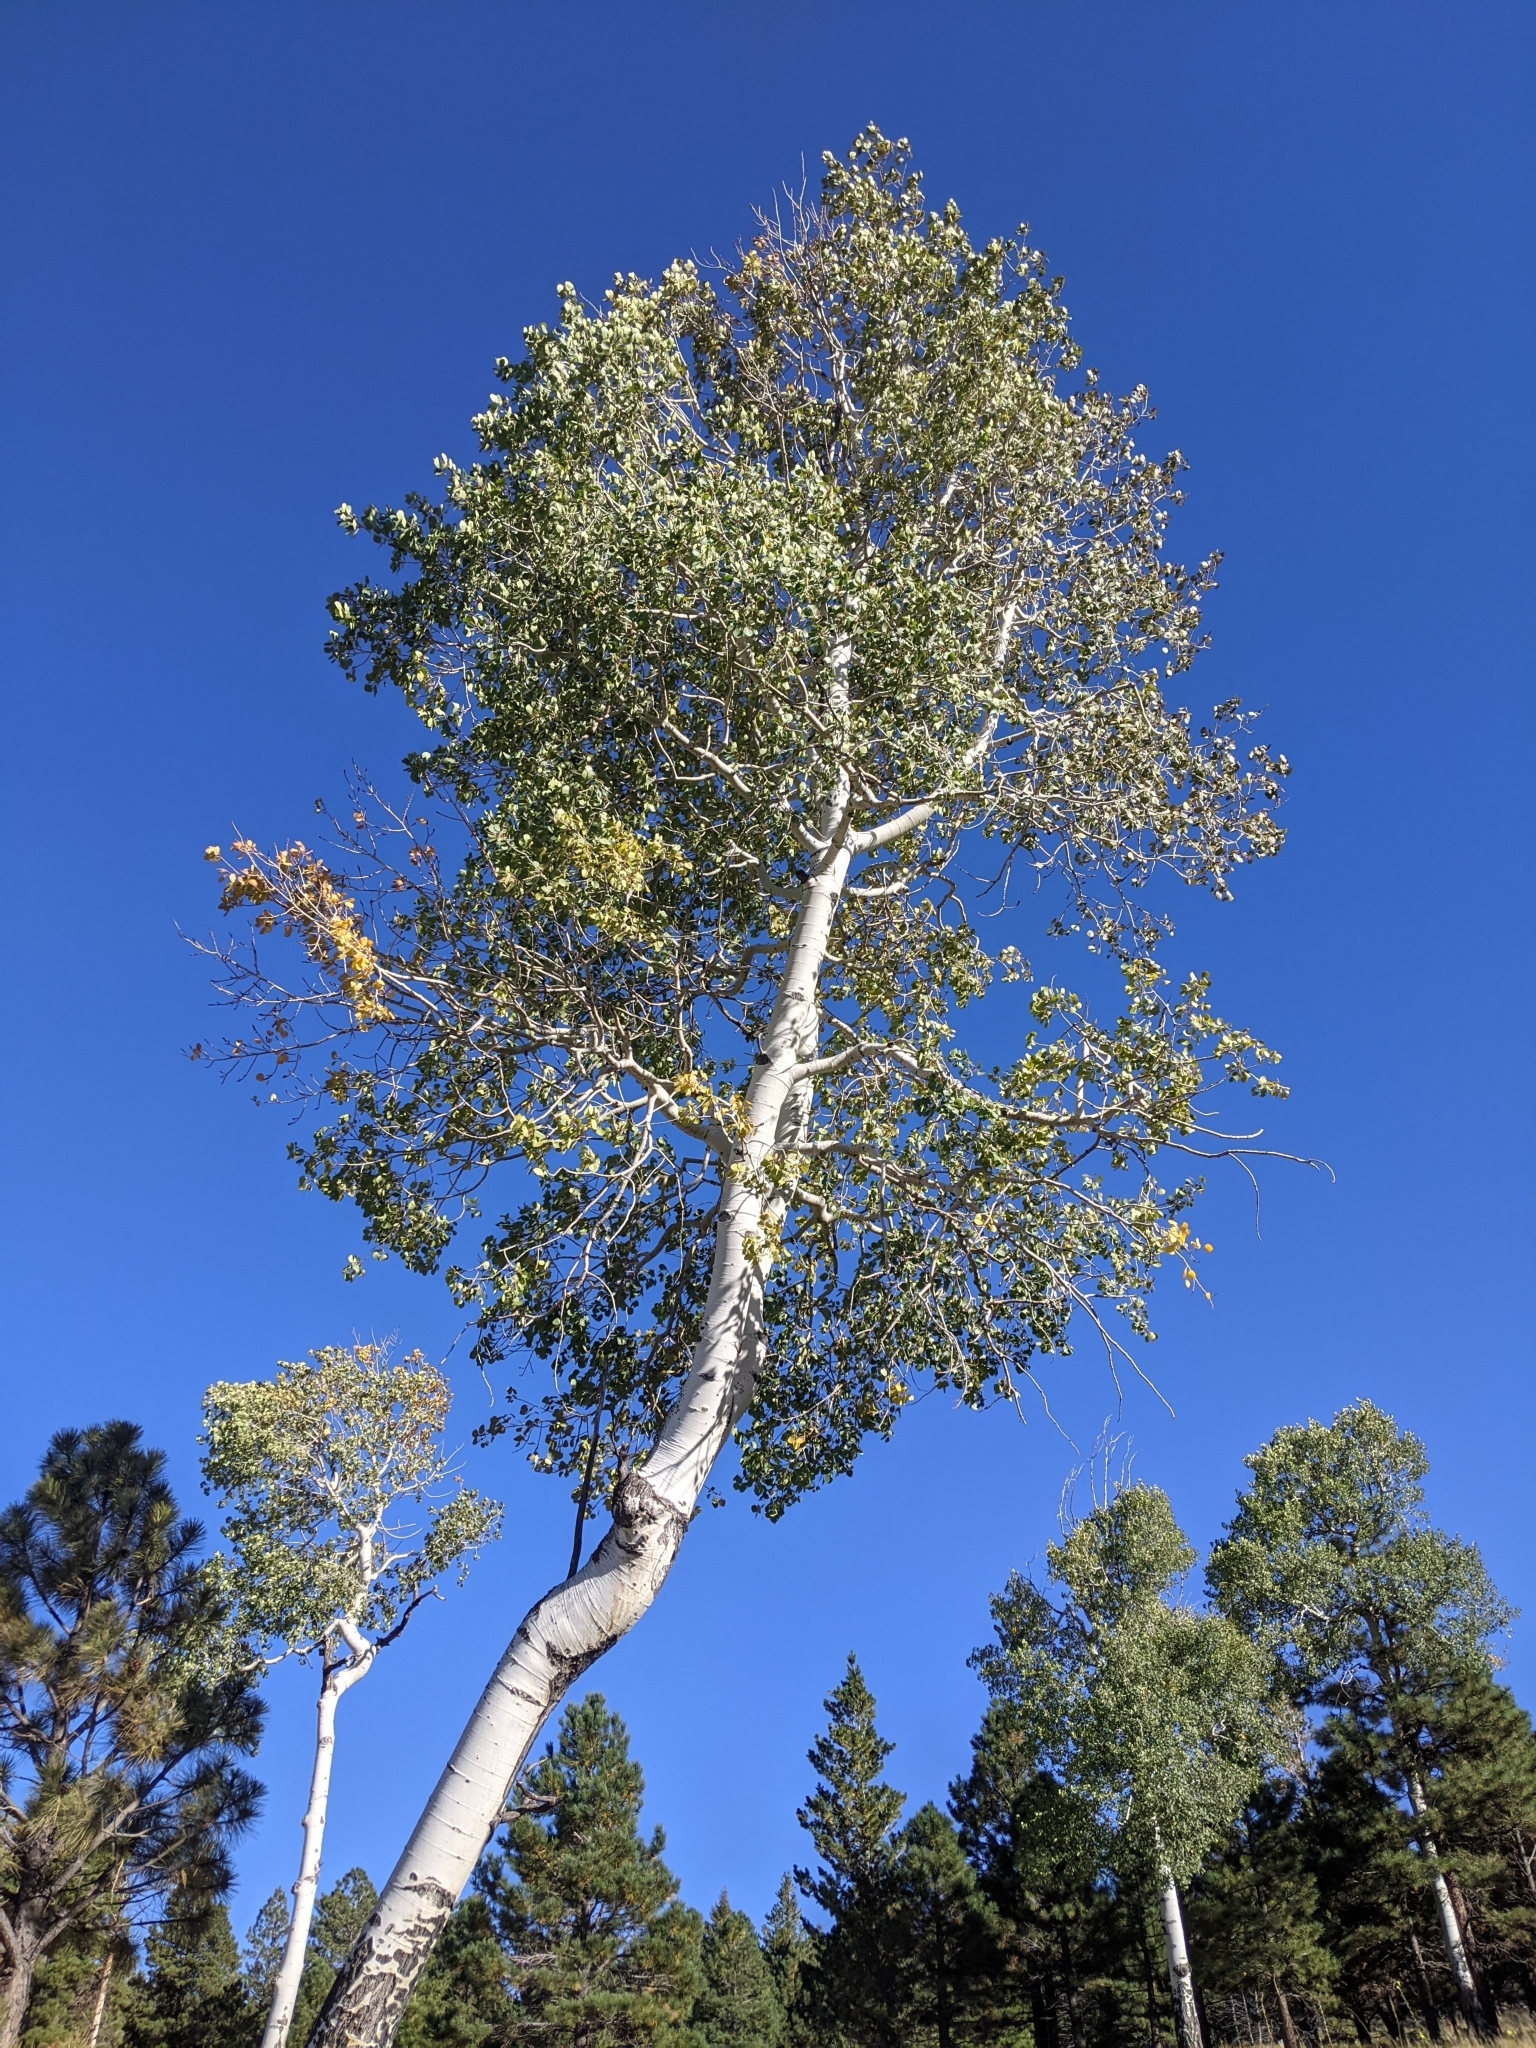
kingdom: Plantae
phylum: Tracheophyta
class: Magnoliopsida
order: Malpighiales
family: Salicaceae
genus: Populus
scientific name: Populus tremuloides
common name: Quaking aspen
